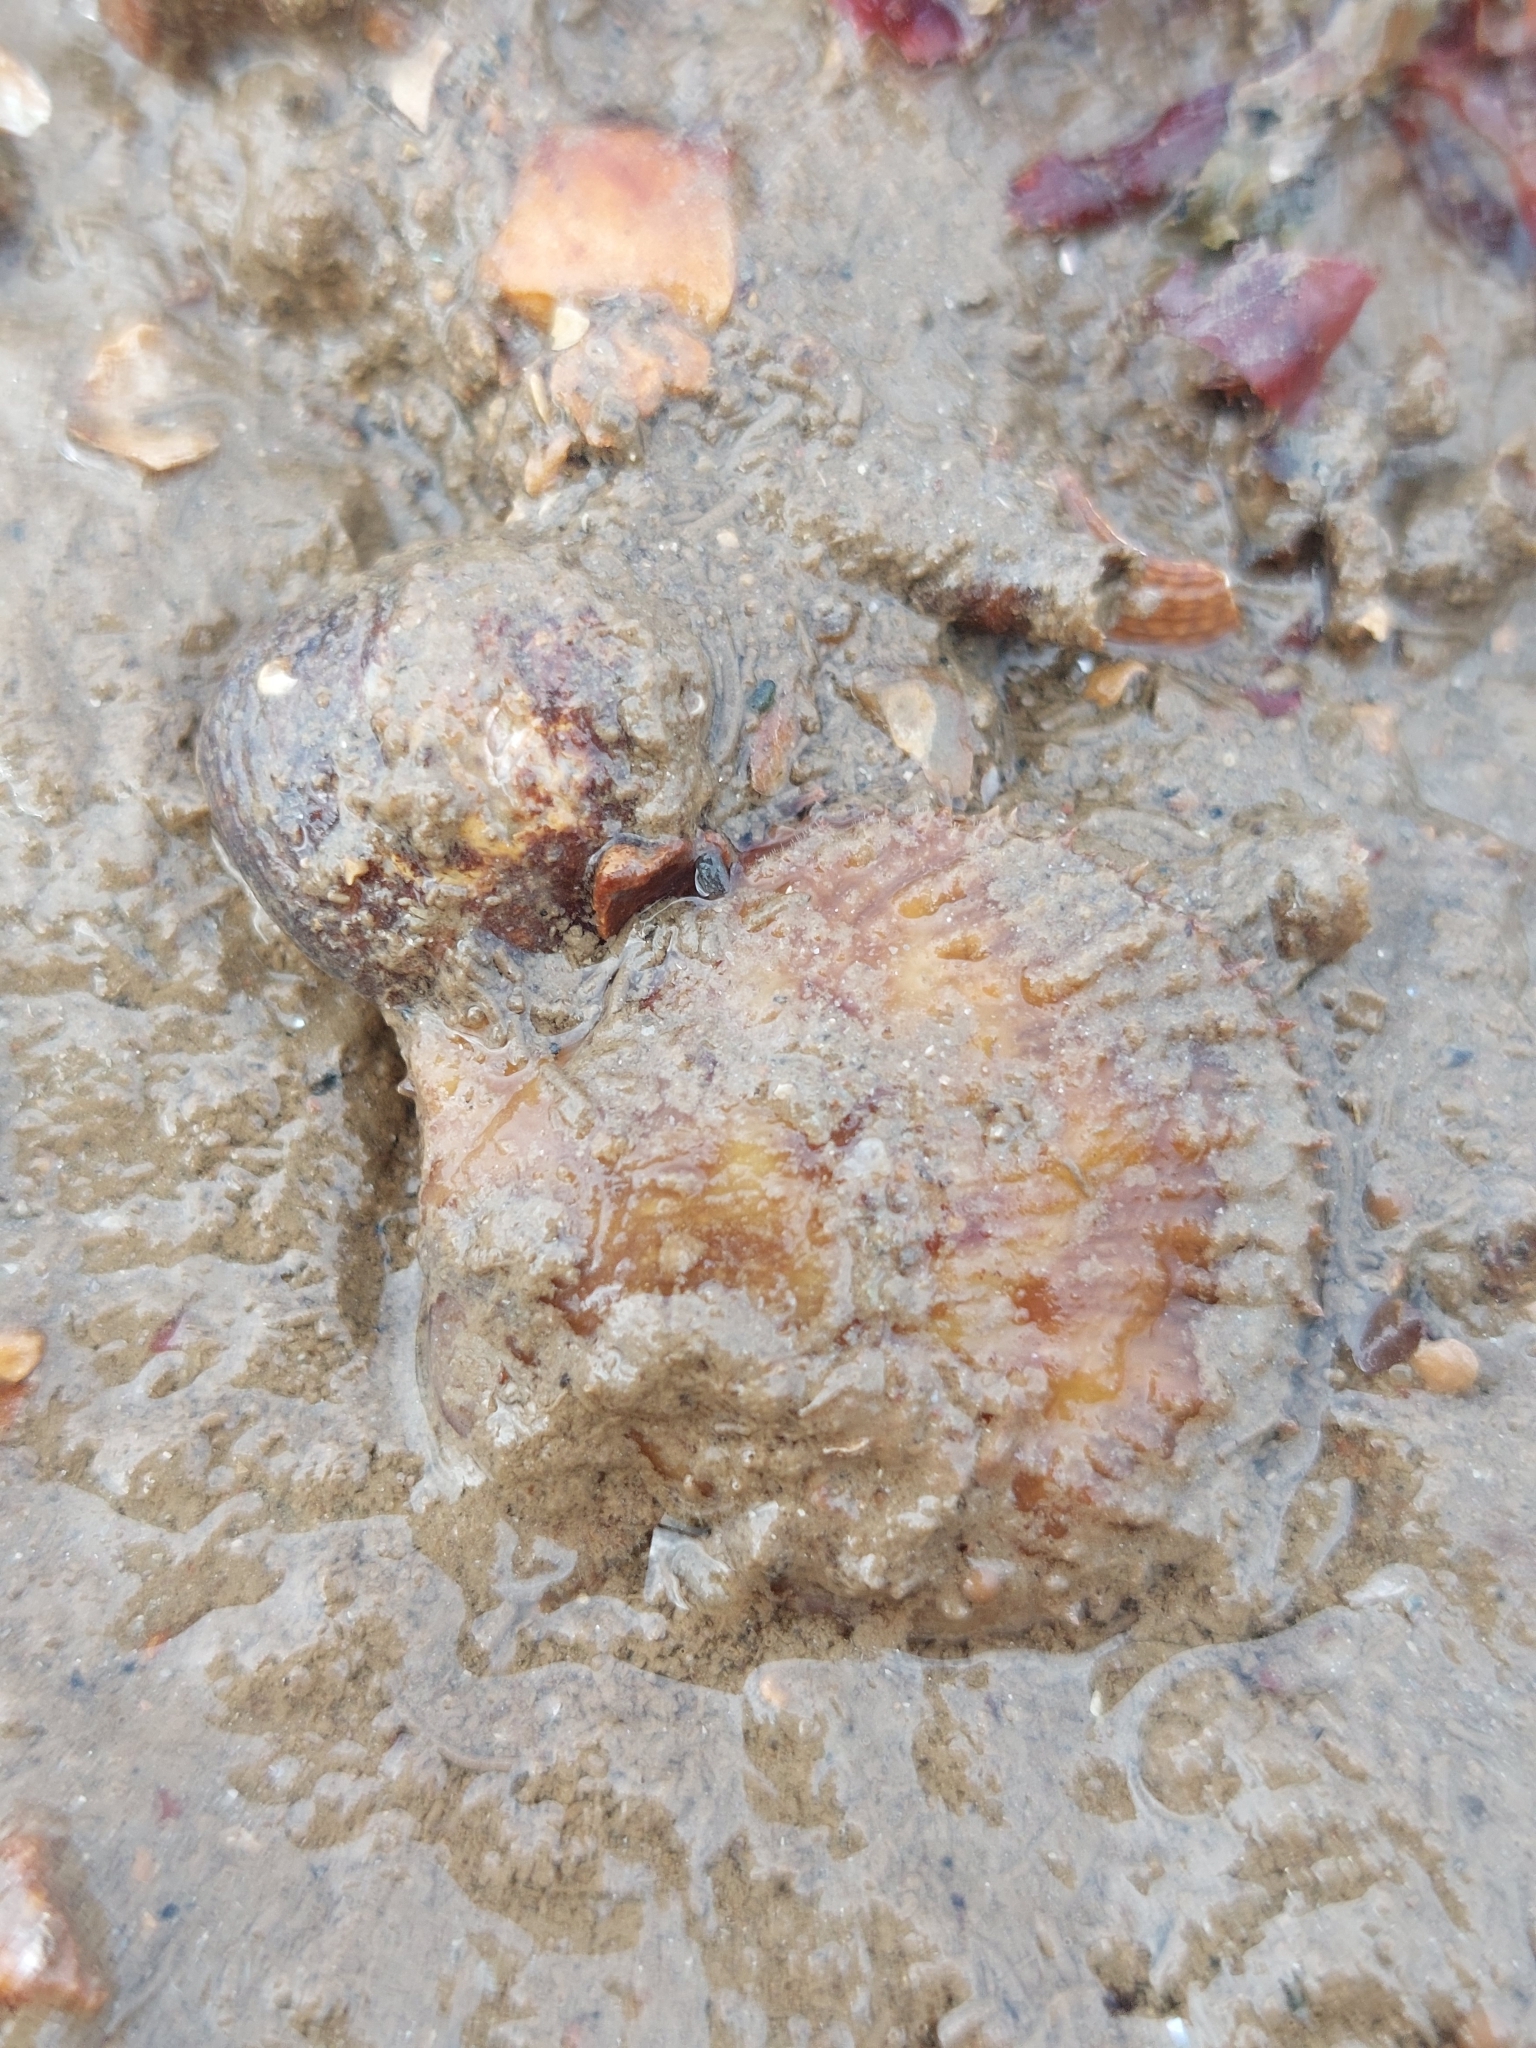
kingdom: Animalia
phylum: Mollusca
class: Bivalvia
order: Pectinida
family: Pectinidae
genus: Mimachlamys
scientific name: Mimachlamys varia
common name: Variegated scallop
